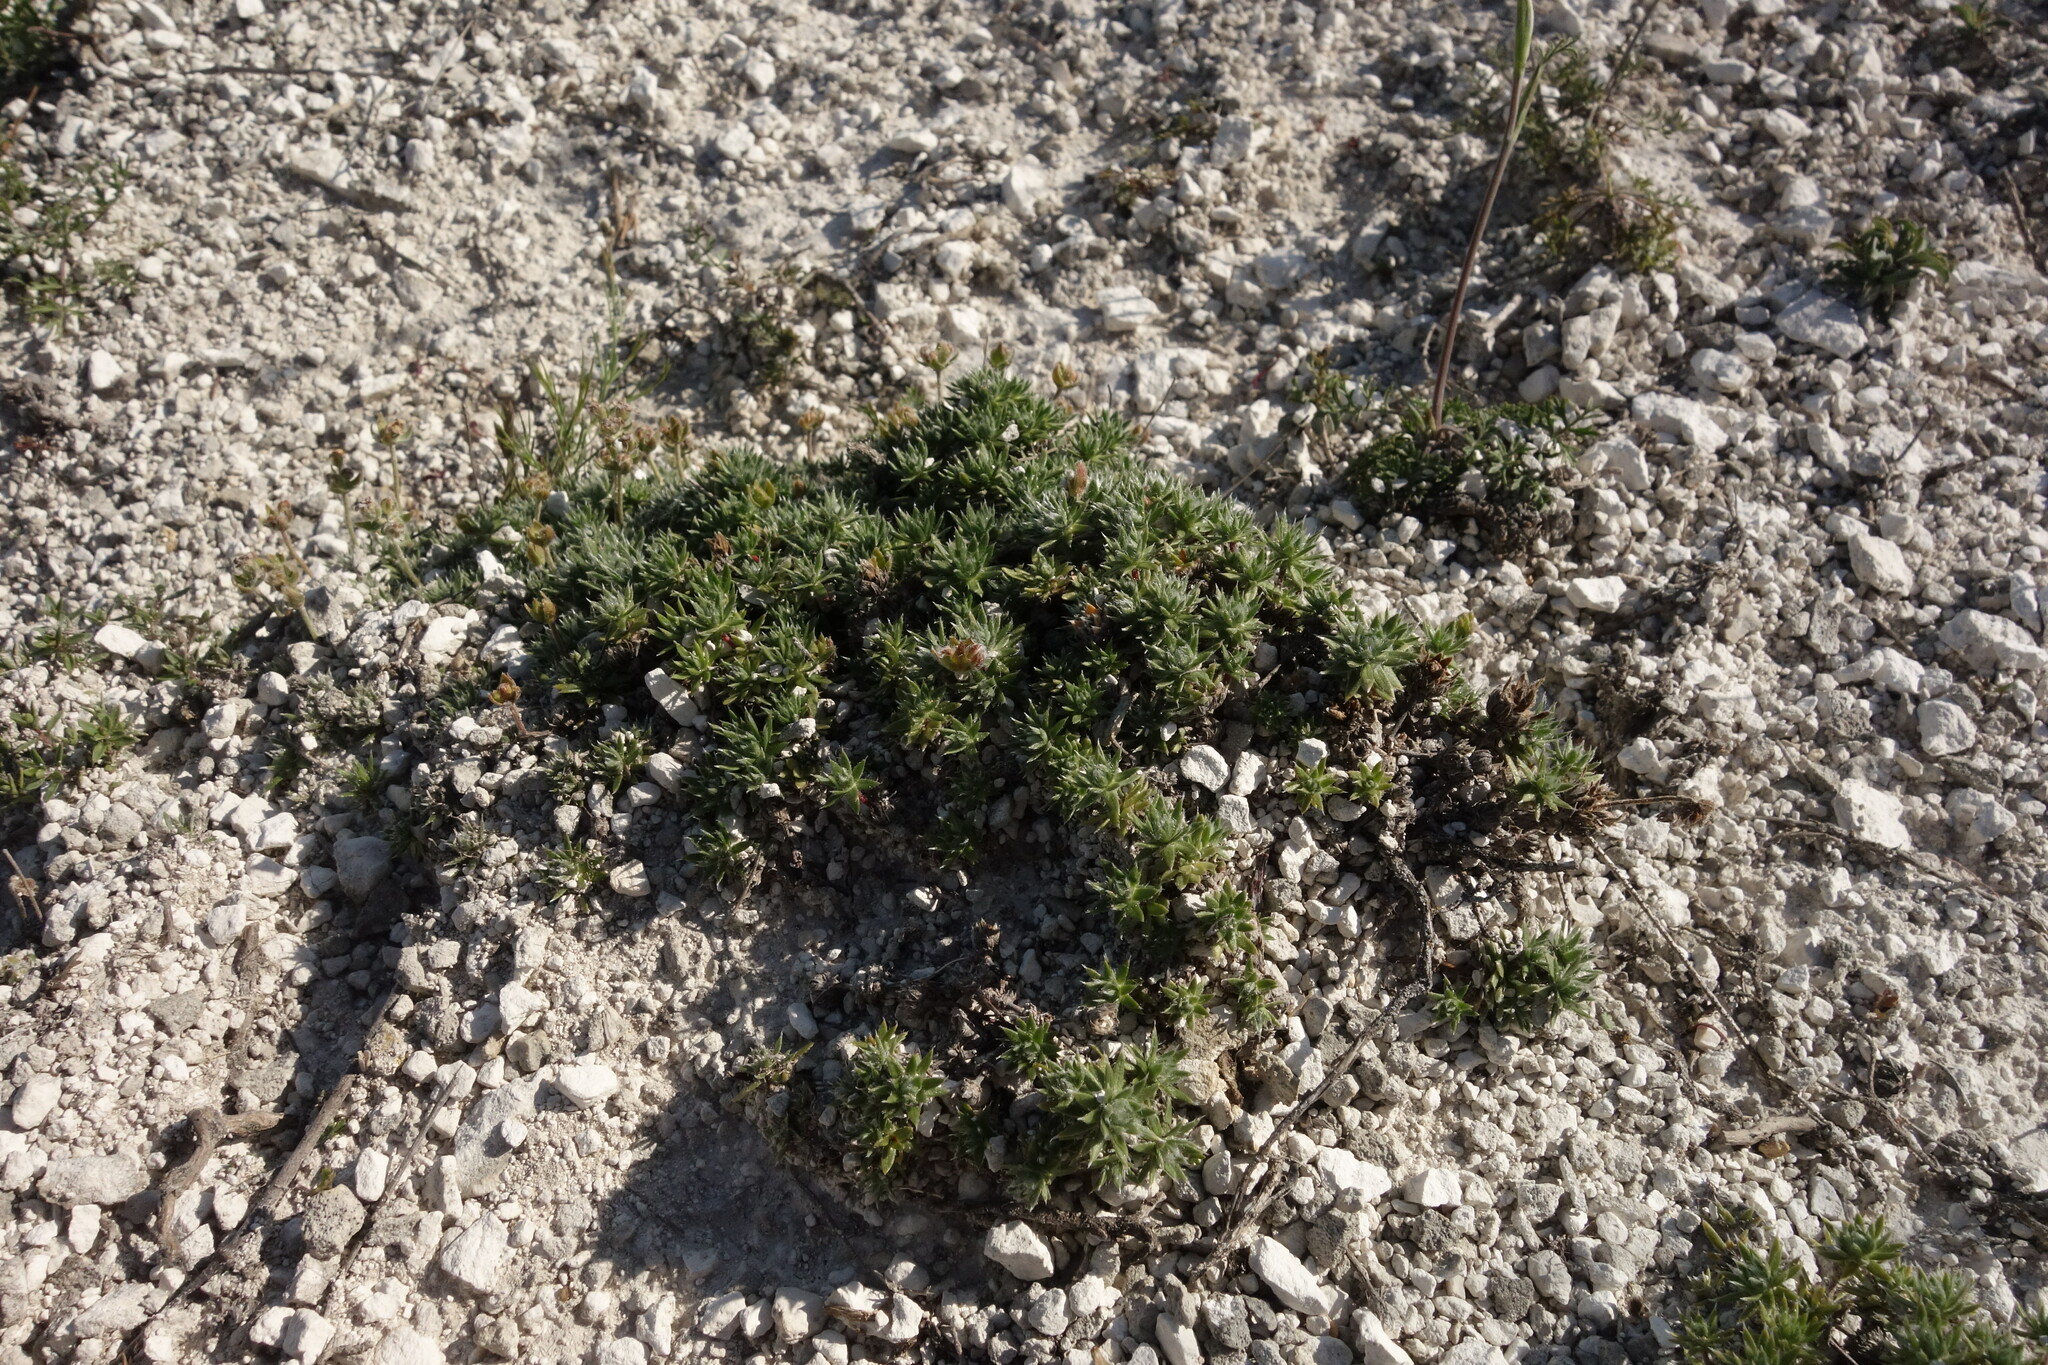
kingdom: Plantae
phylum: Tracheophyta
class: Magnoliopsida
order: Ericales
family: Primulaceae
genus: Androsace
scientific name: Androsace villosa
